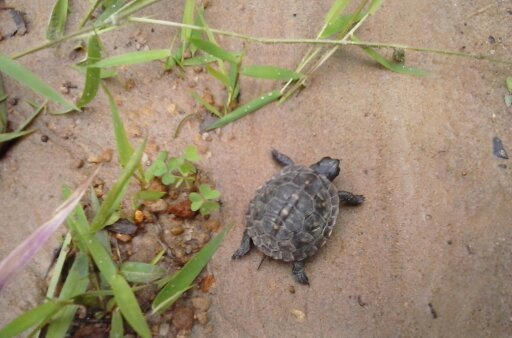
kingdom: Animalia
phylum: Chordata
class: Testudines
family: Emydidae
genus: Terrapene
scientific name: Terrapene carolina
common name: Common box turtle
